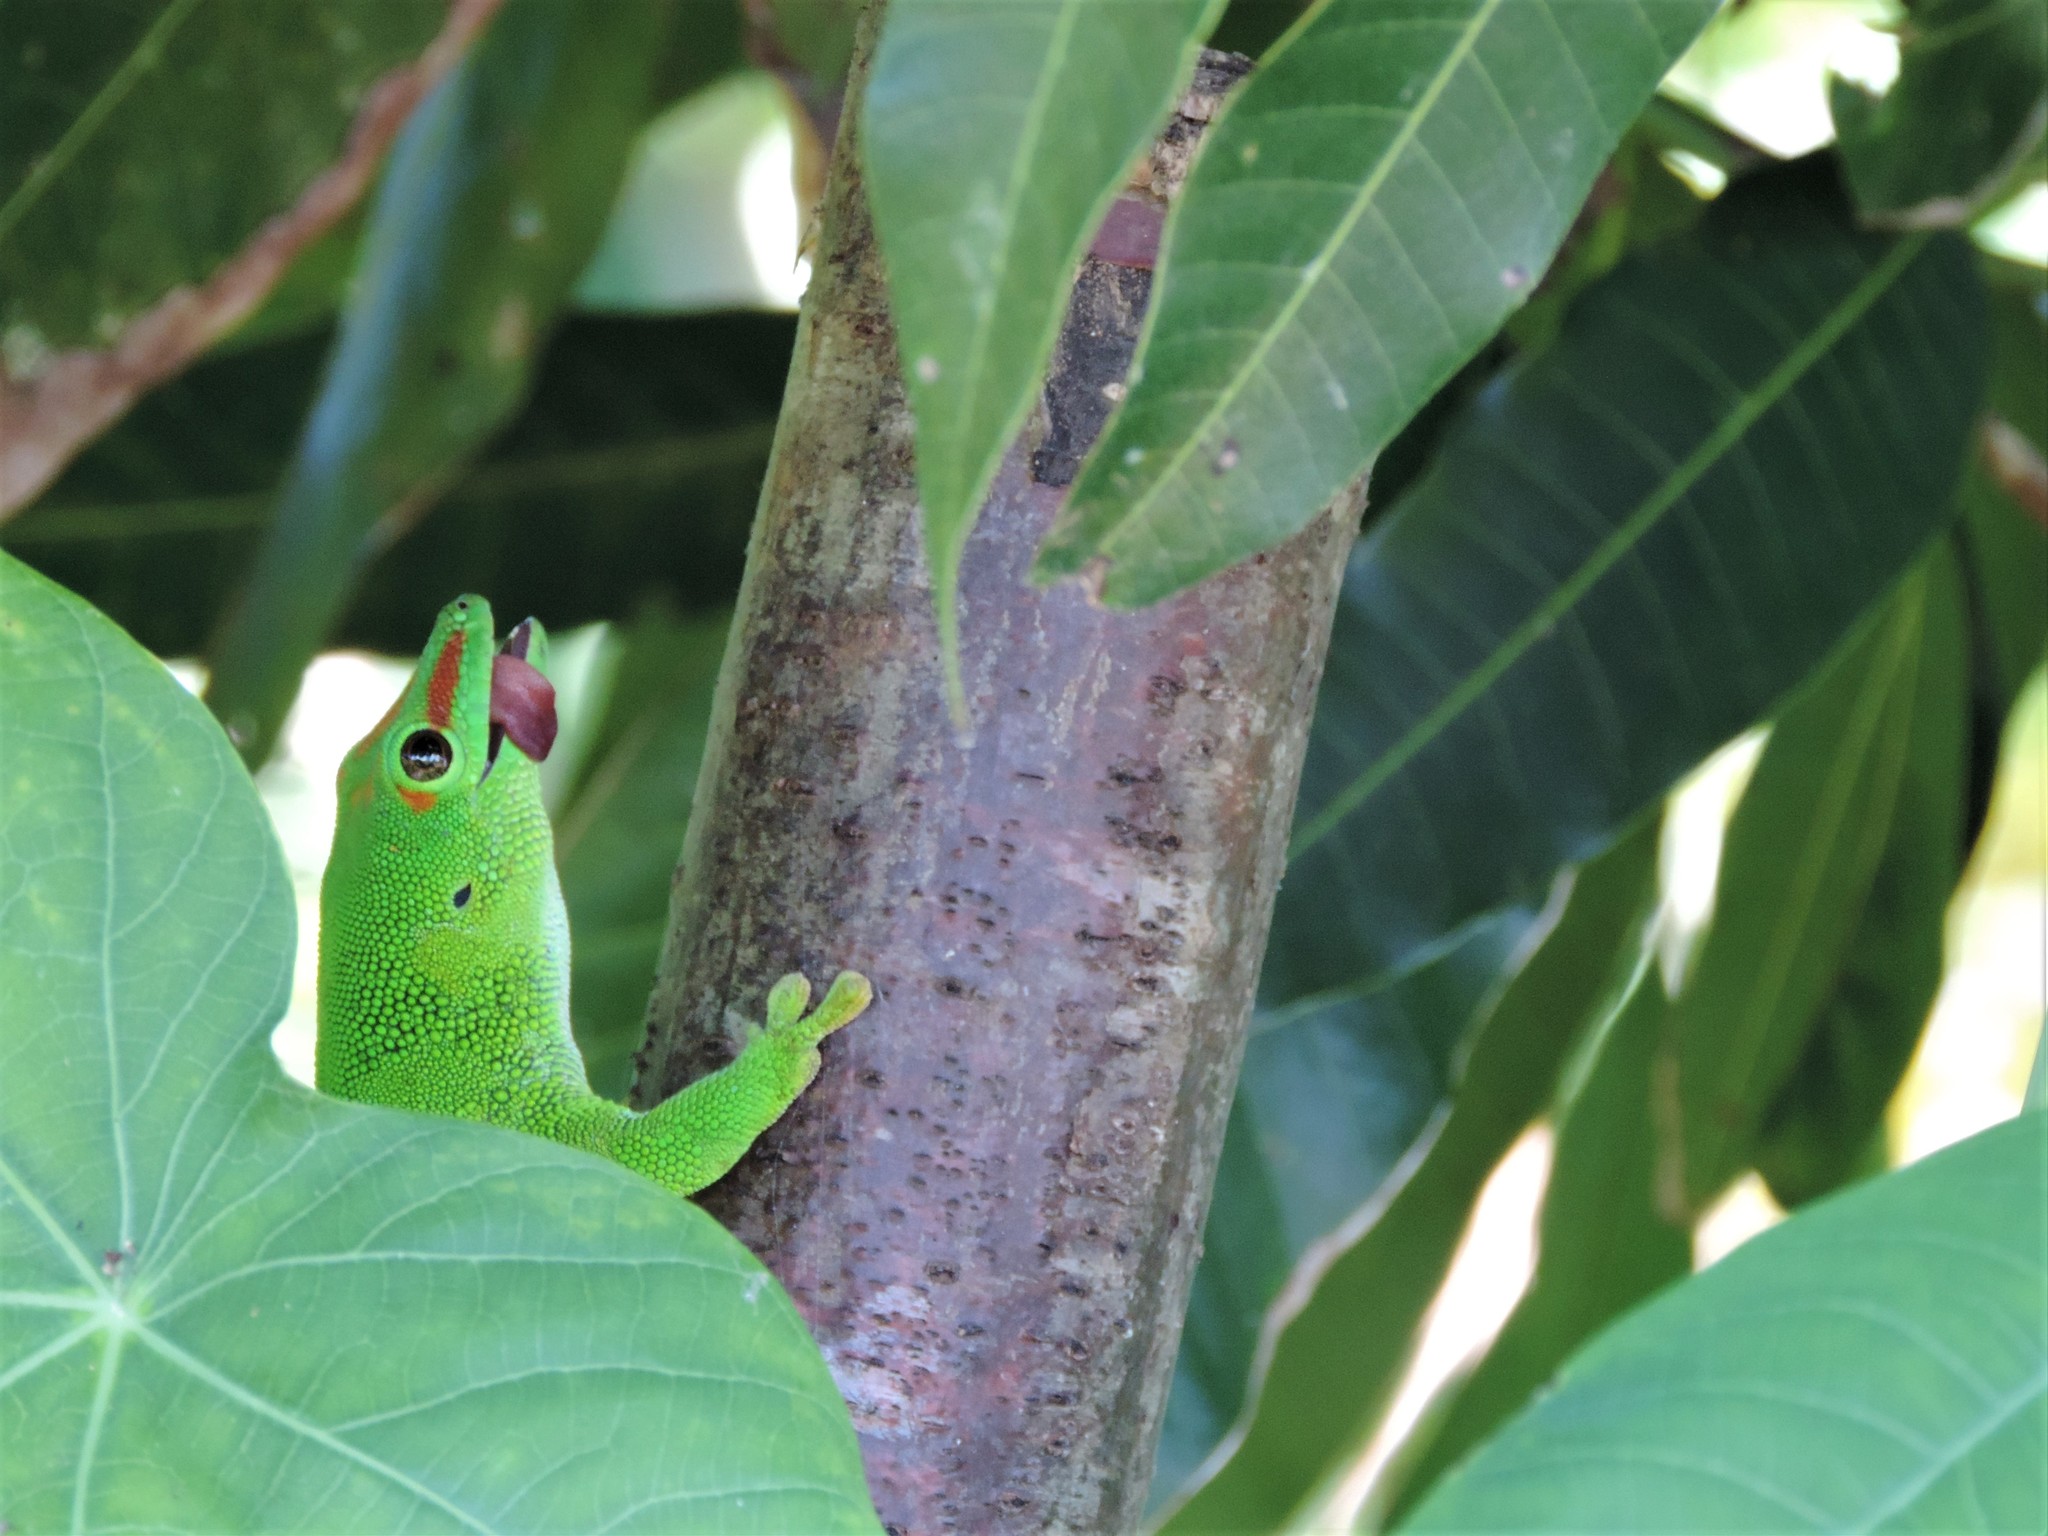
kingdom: Animalia
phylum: Chordata
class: Squamata
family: Gekkonidae
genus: Phelsuma
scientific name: Phelsuma grandis
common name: Madagascar giant day gecko
